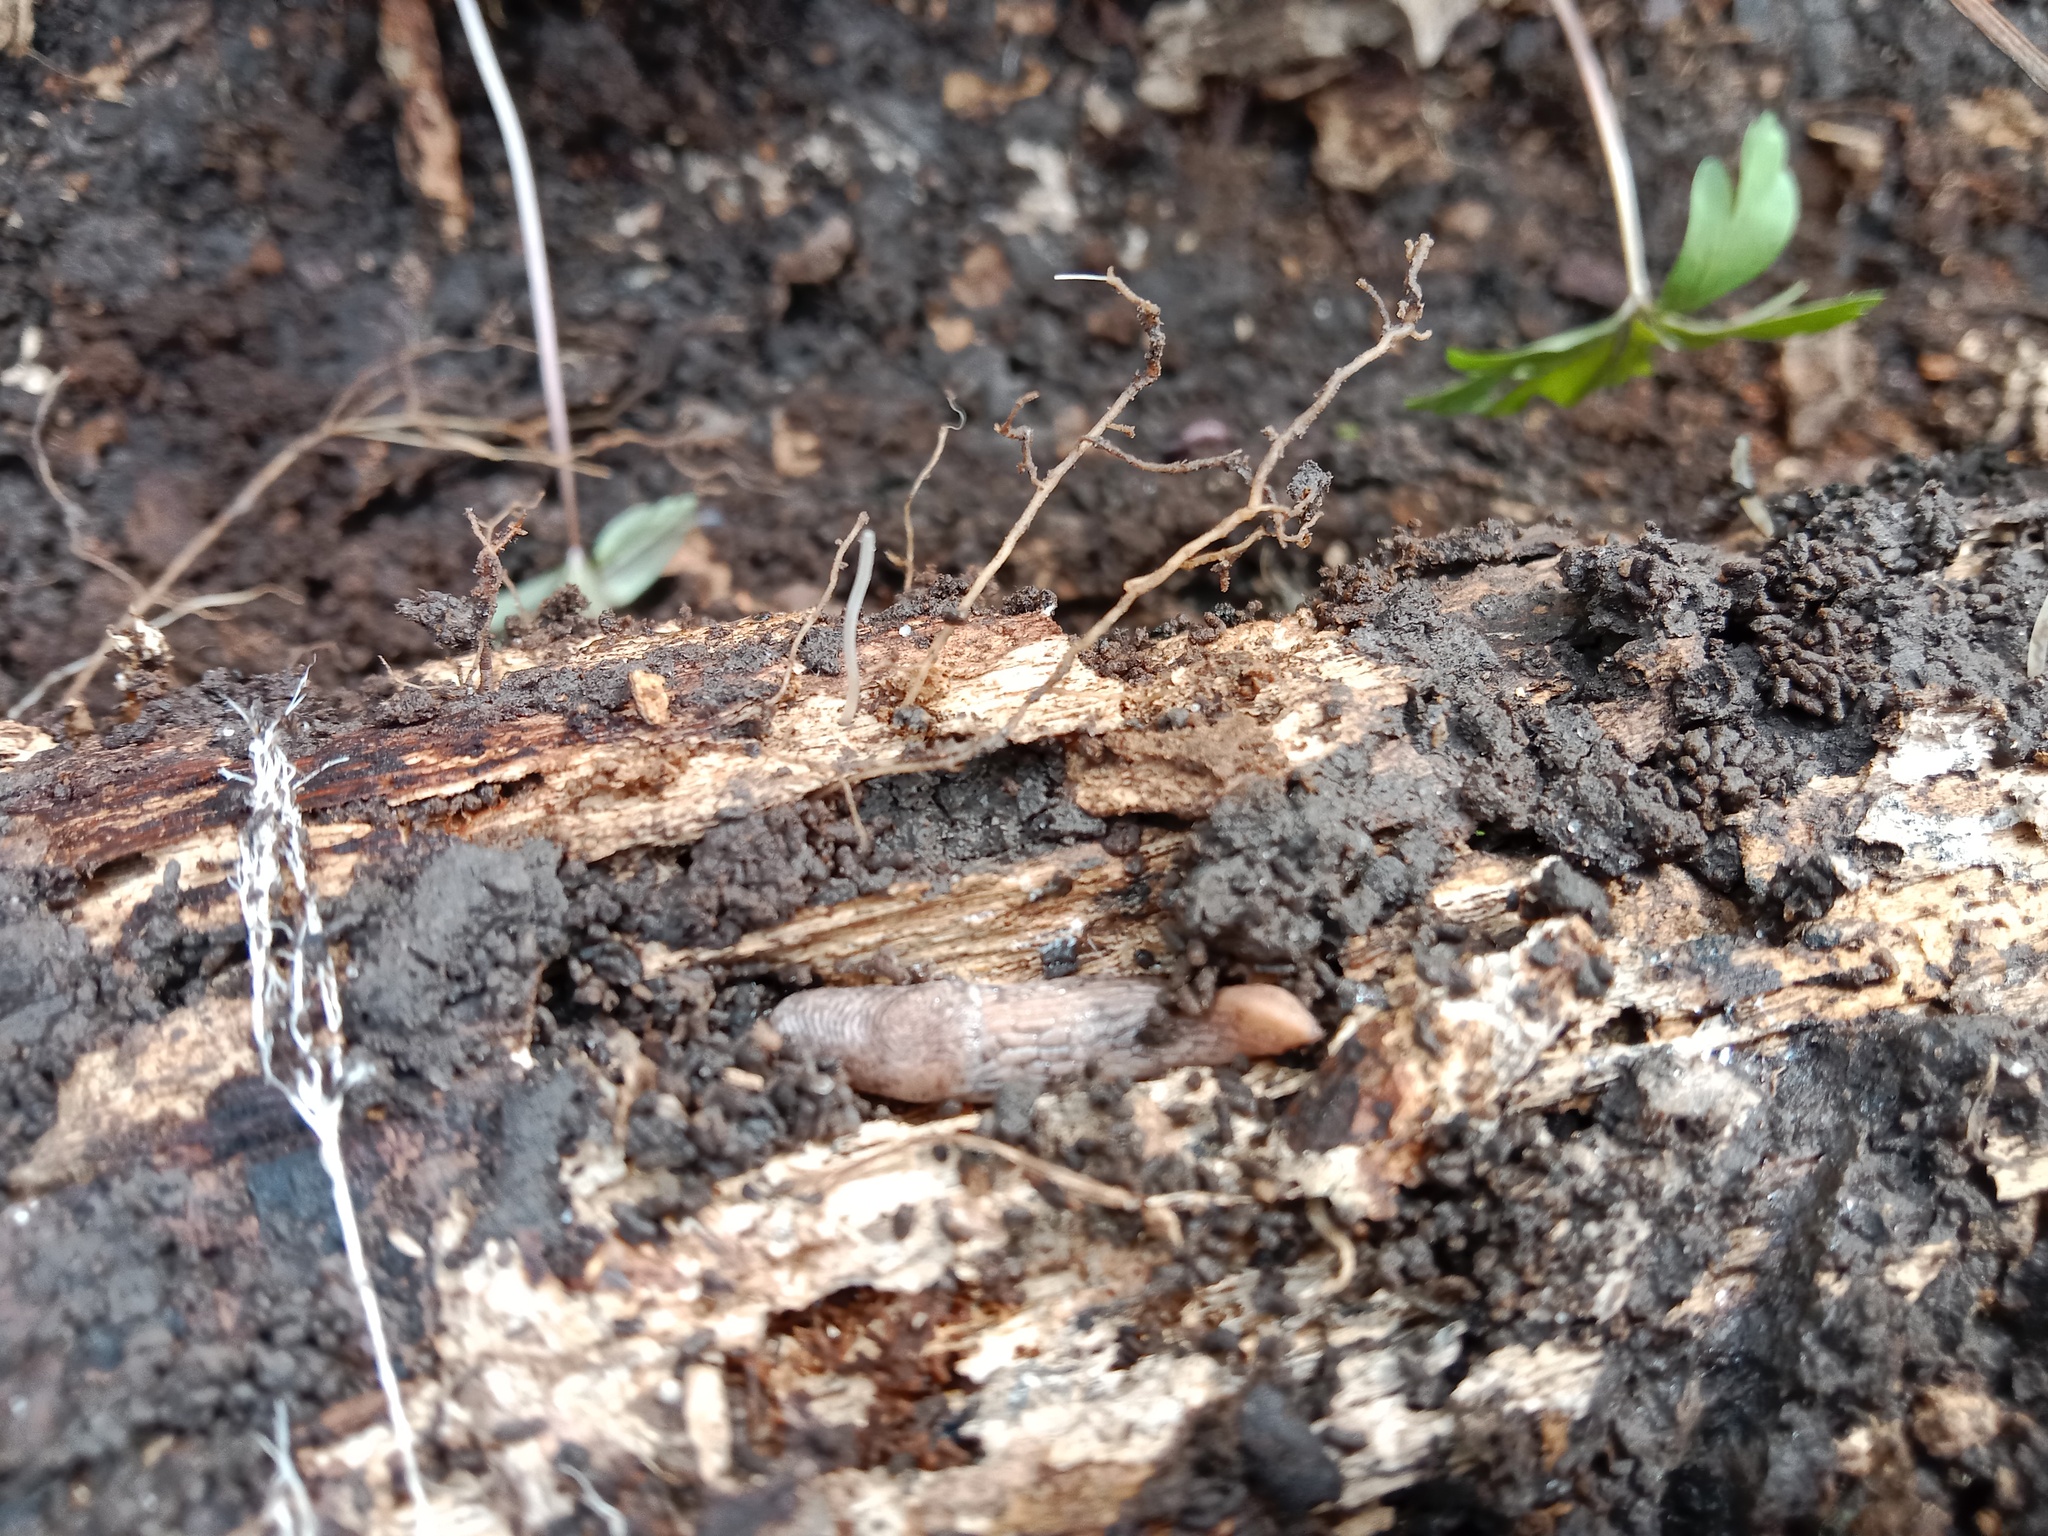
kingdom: Animalia
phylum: Mollusca
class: Gastropoda
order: Stylommatophora
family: Agriolimacidae
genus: Deroceras
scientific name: Deroceras reticulatum
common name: Gray field slug
